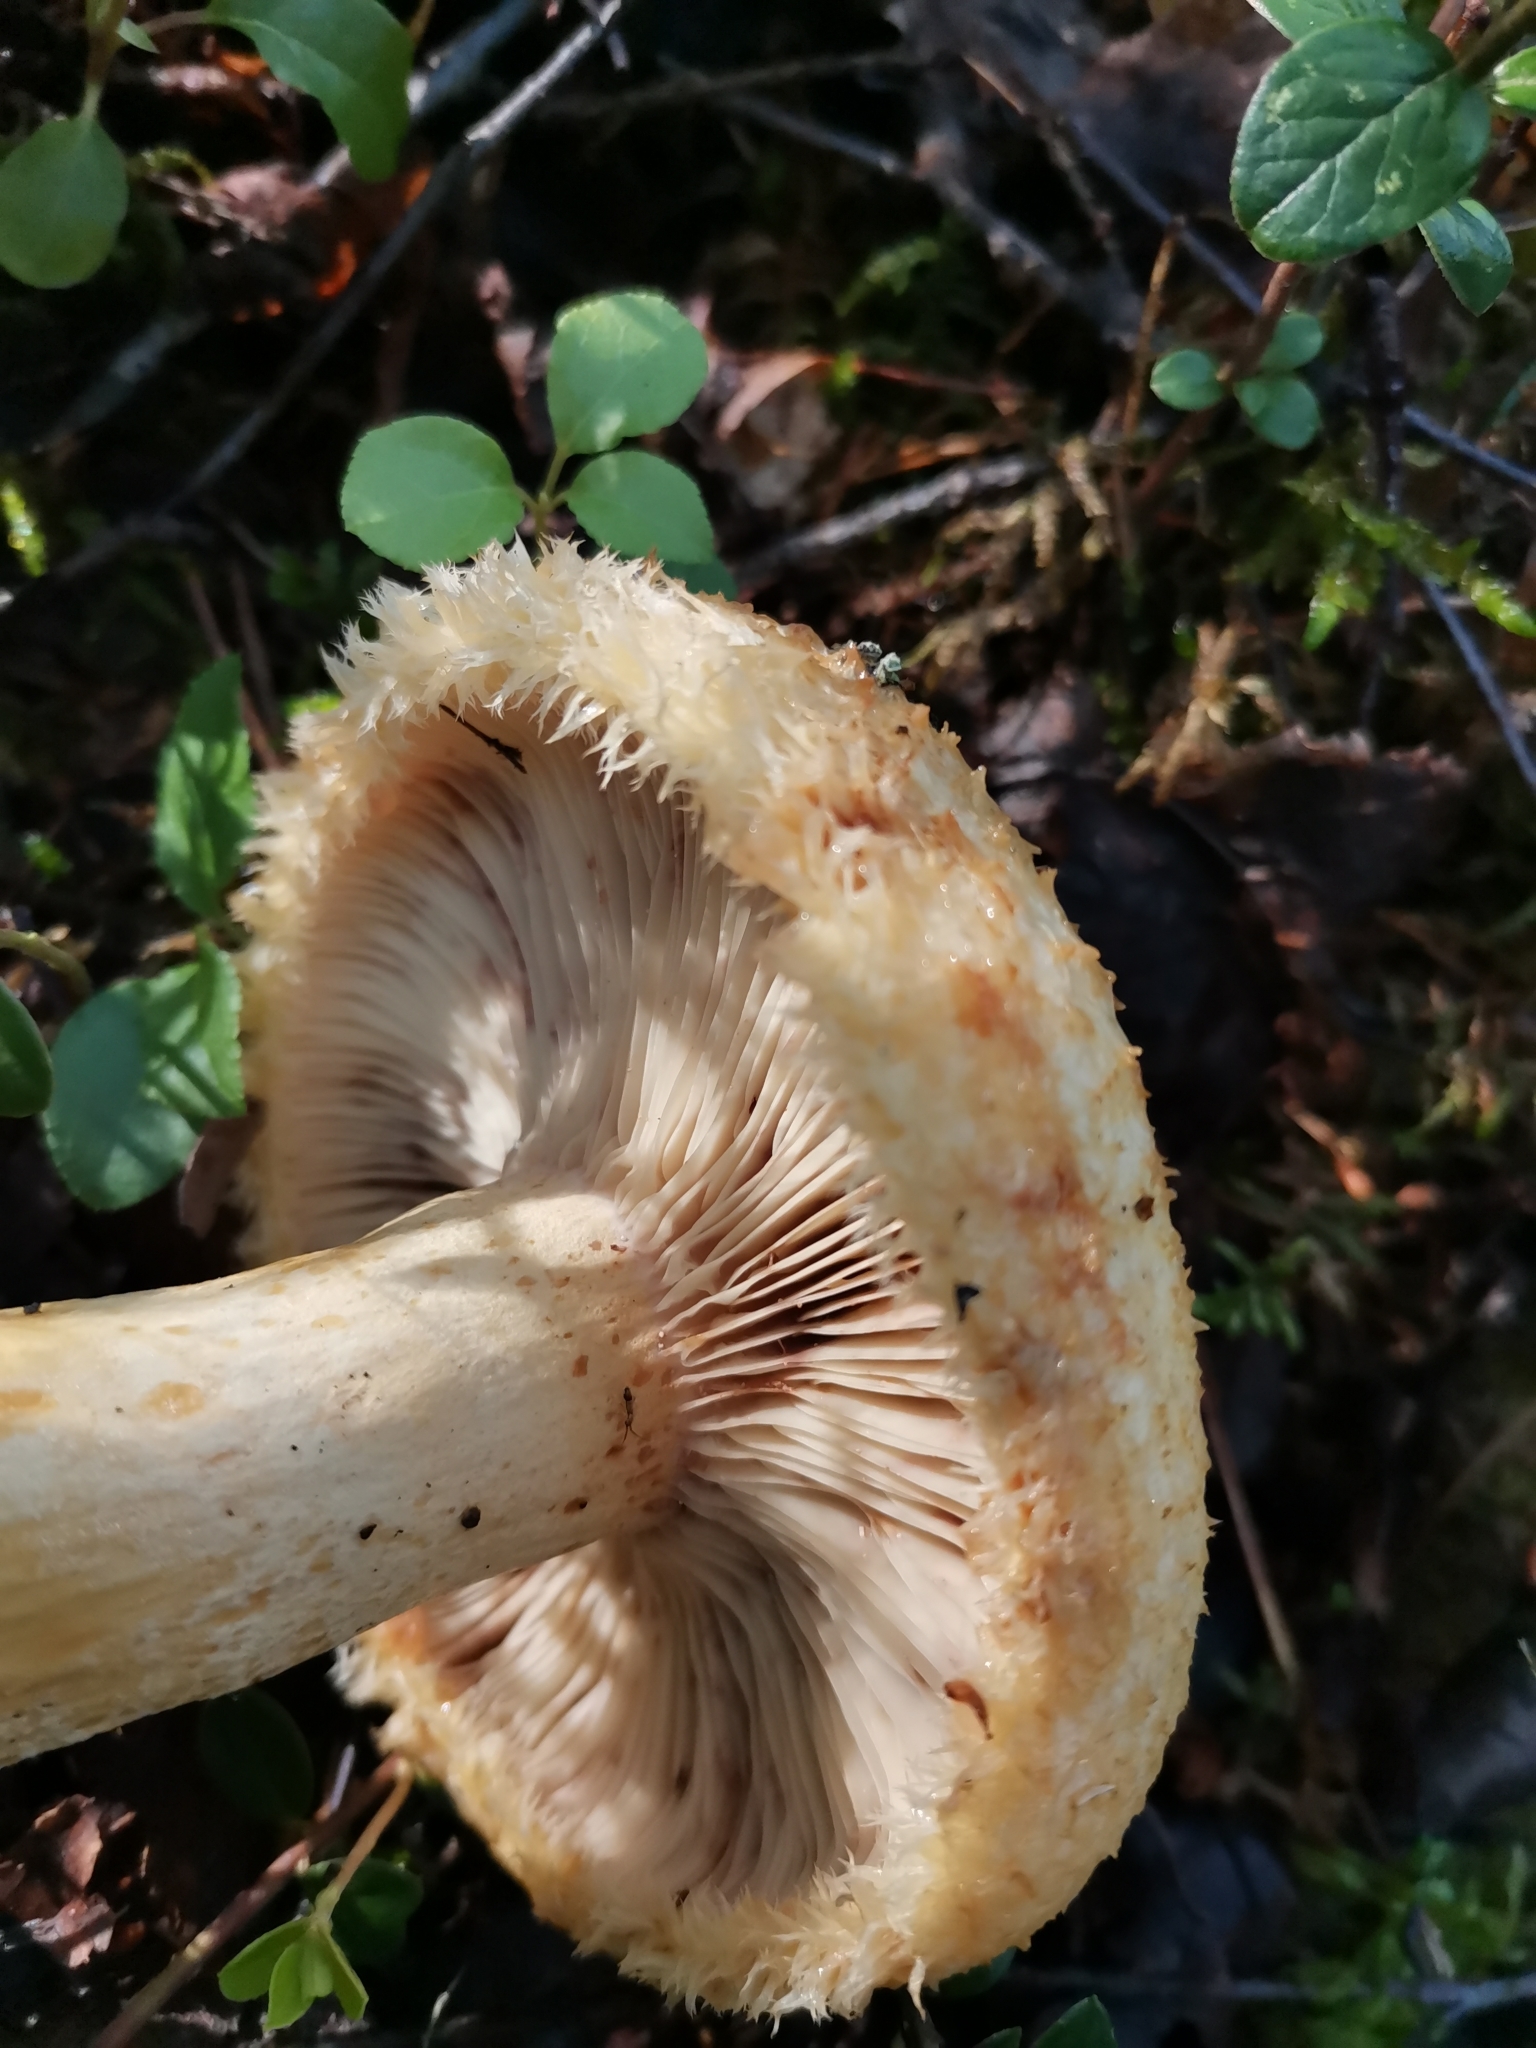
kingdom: Fungi
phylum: Basidiomycota
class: Agaricomycetes
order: Russulales
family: Russulaceae
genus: Lactarius
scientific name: Lactarius repraesentaneus
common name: Yellow bearded milkcap
